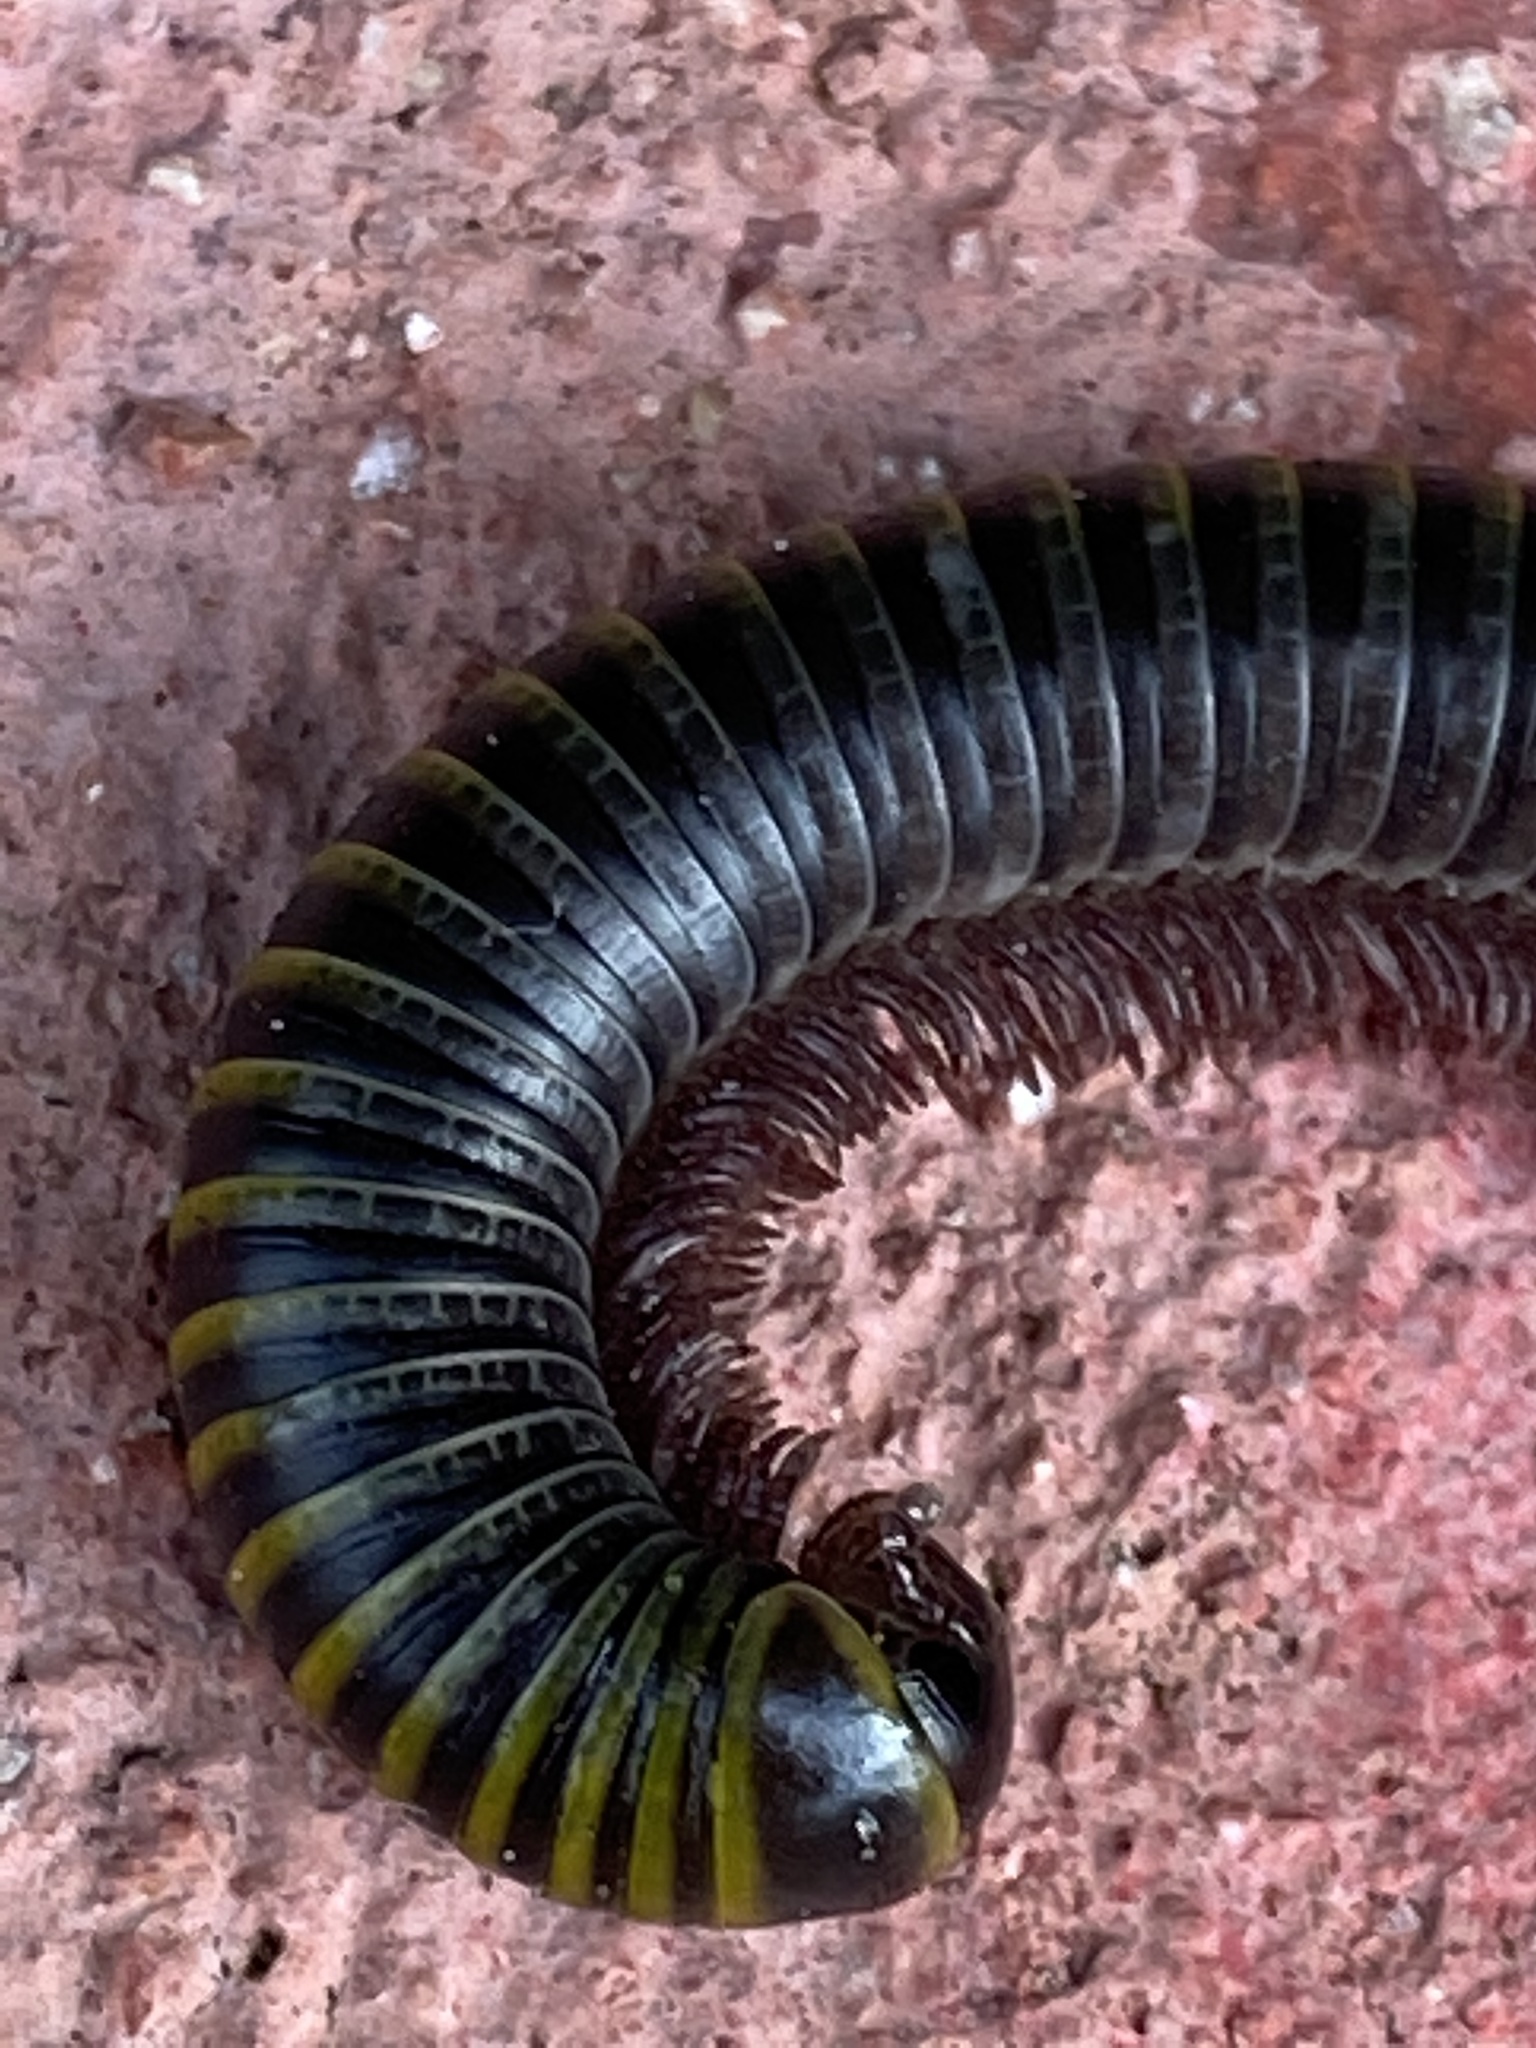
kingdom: Animalia
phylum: Arthropoda
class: Diplopoda
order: Spirobolida
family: Rhinocricidae
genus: Anadenobolus
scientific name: Anadenobolus monilicornis
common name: Caribbean millipede
